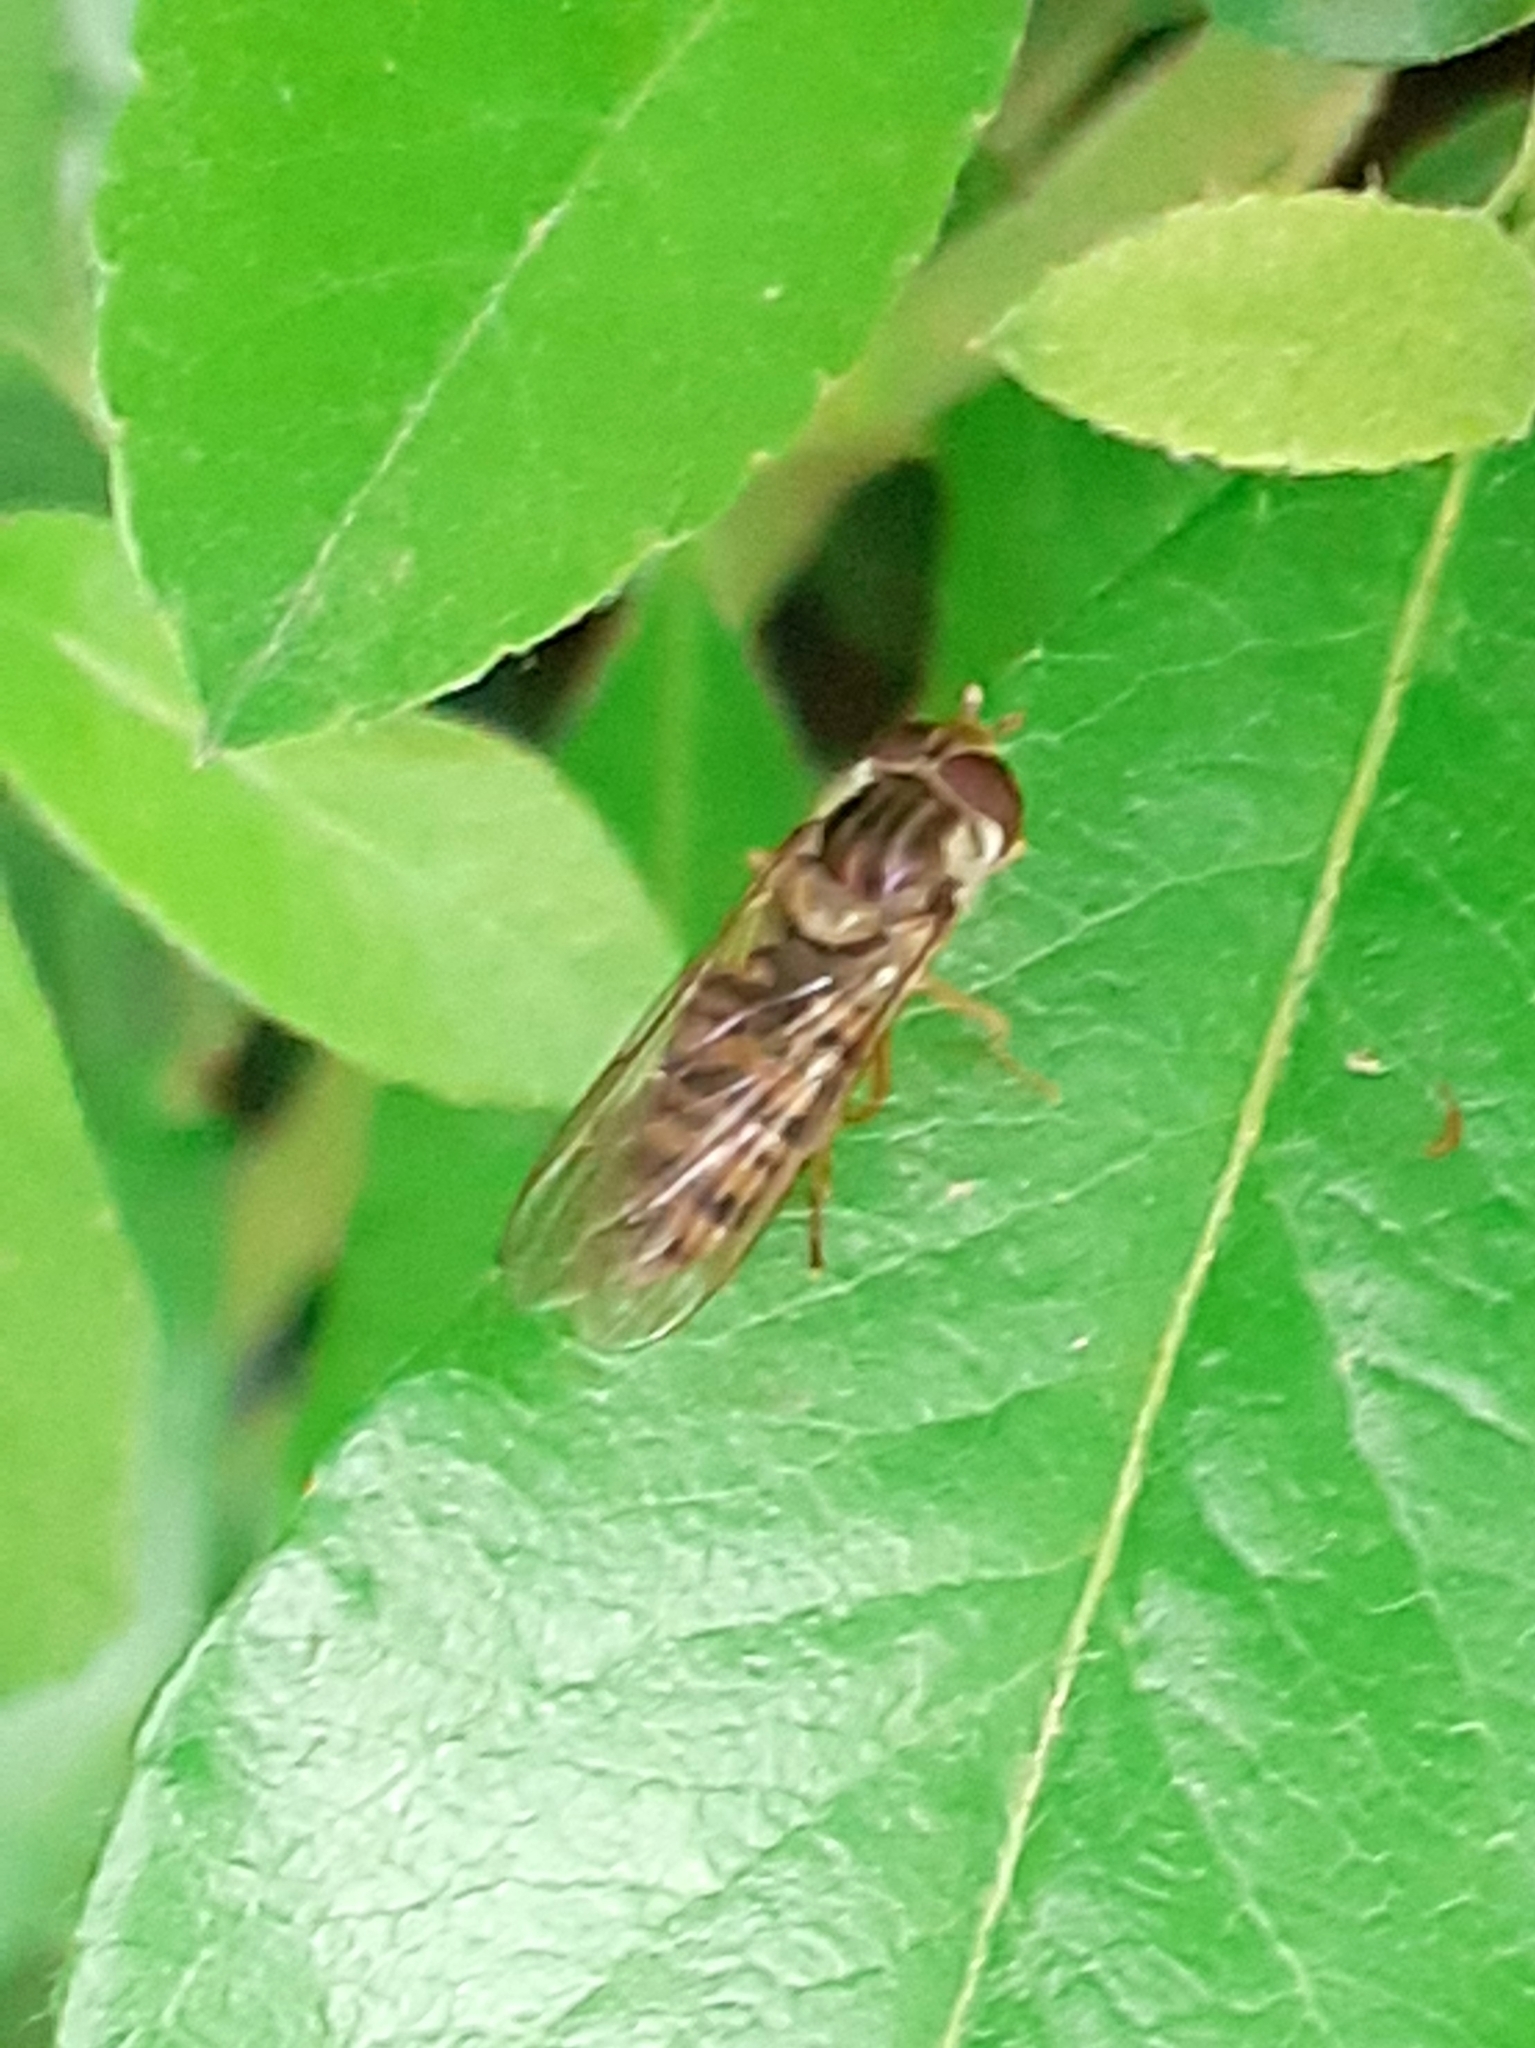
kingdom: Animalia
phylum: Arthropoda
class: Insecta
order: Diptera
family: Syrphidae
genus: Episyrphus
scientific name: Episyrphus balteatus
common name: Marmalade hoverfly
